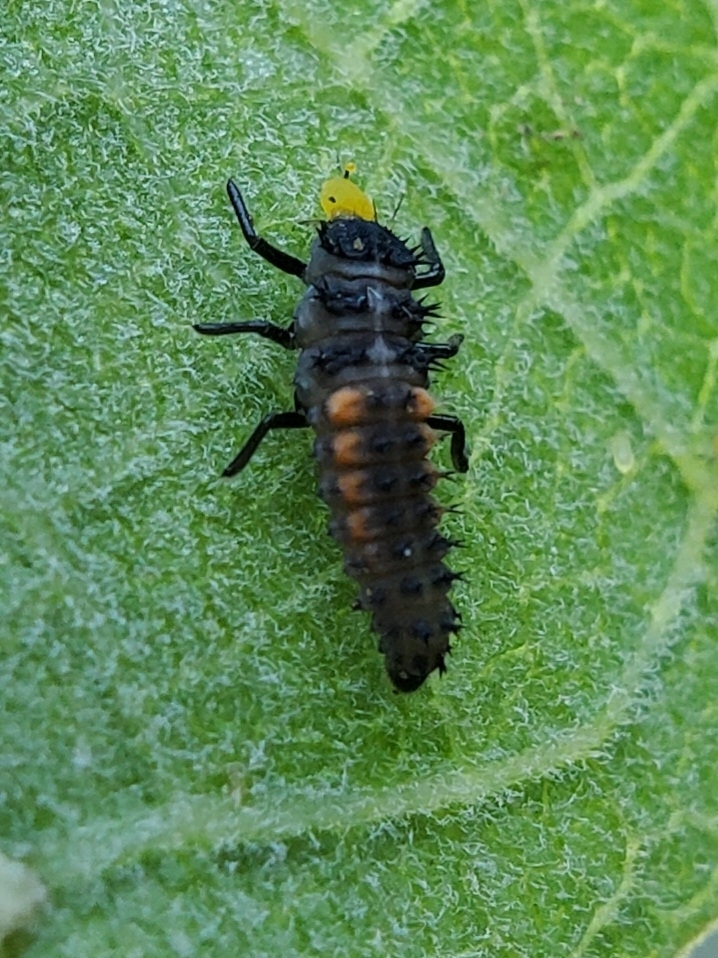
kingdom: Animalia
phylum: Arthropoda
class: Insecta
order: Coleoptera
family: Coccinellidae
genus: Harmonia
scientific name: Harmonia axyridis
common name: Harlequin ladybird
